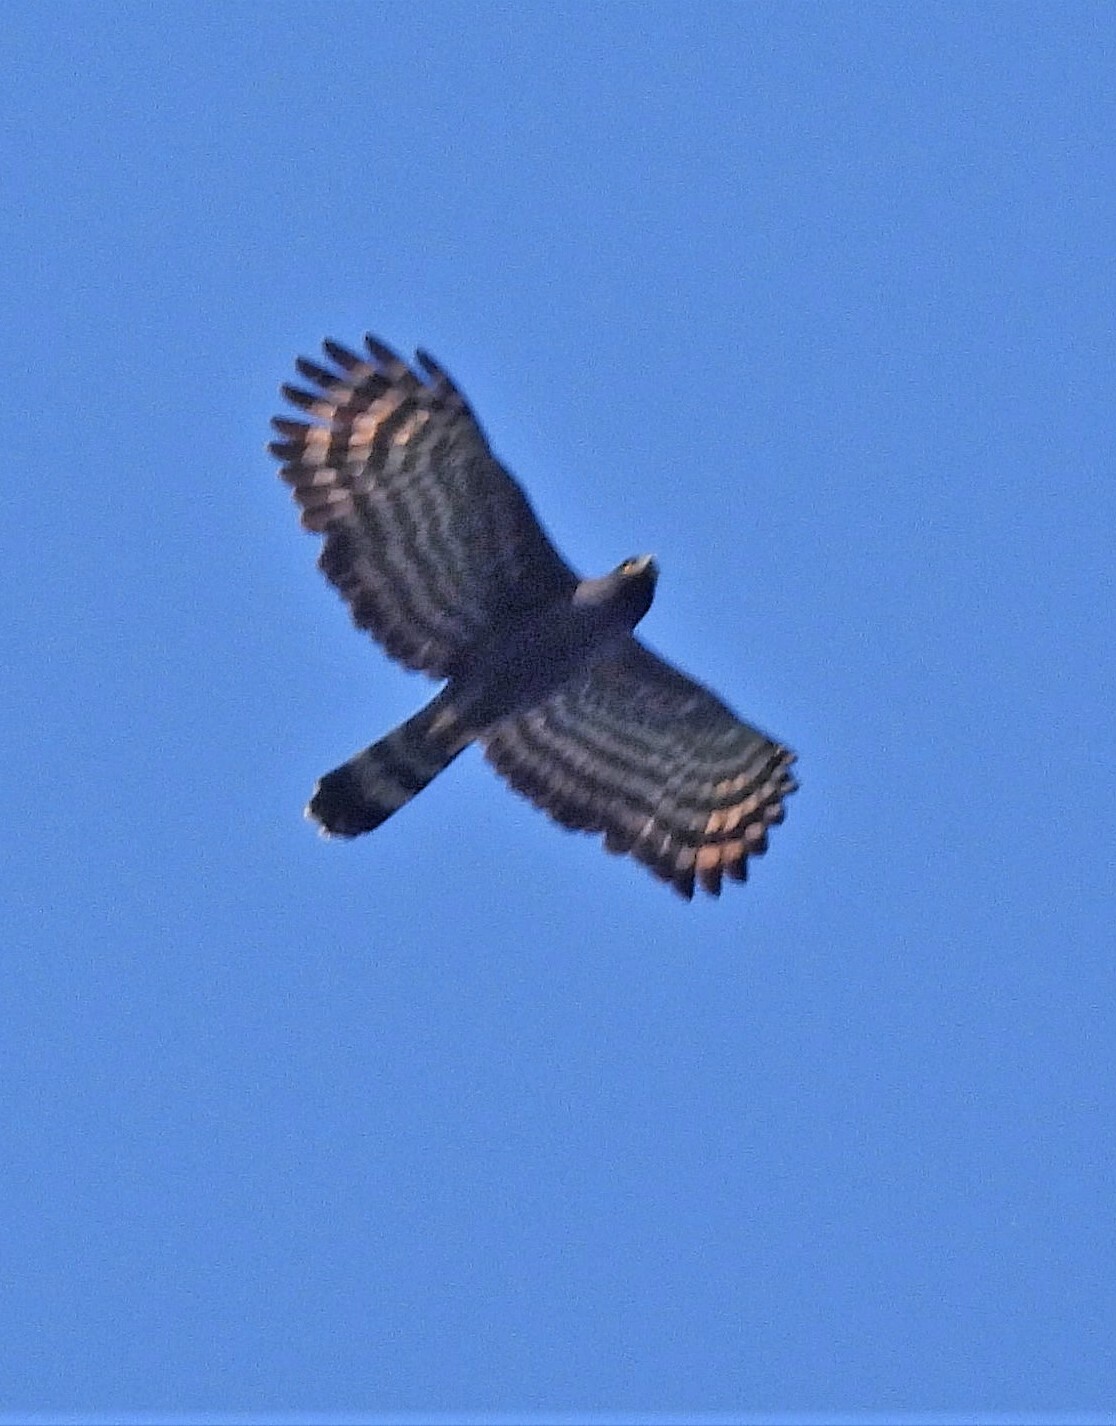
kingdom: Animalia
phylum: Chordata
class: Aves
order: Accipitriformes
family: Accipitridae
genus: Spizaetus
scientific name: Spizaetus tyrannus
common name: Black hawk-eagle
